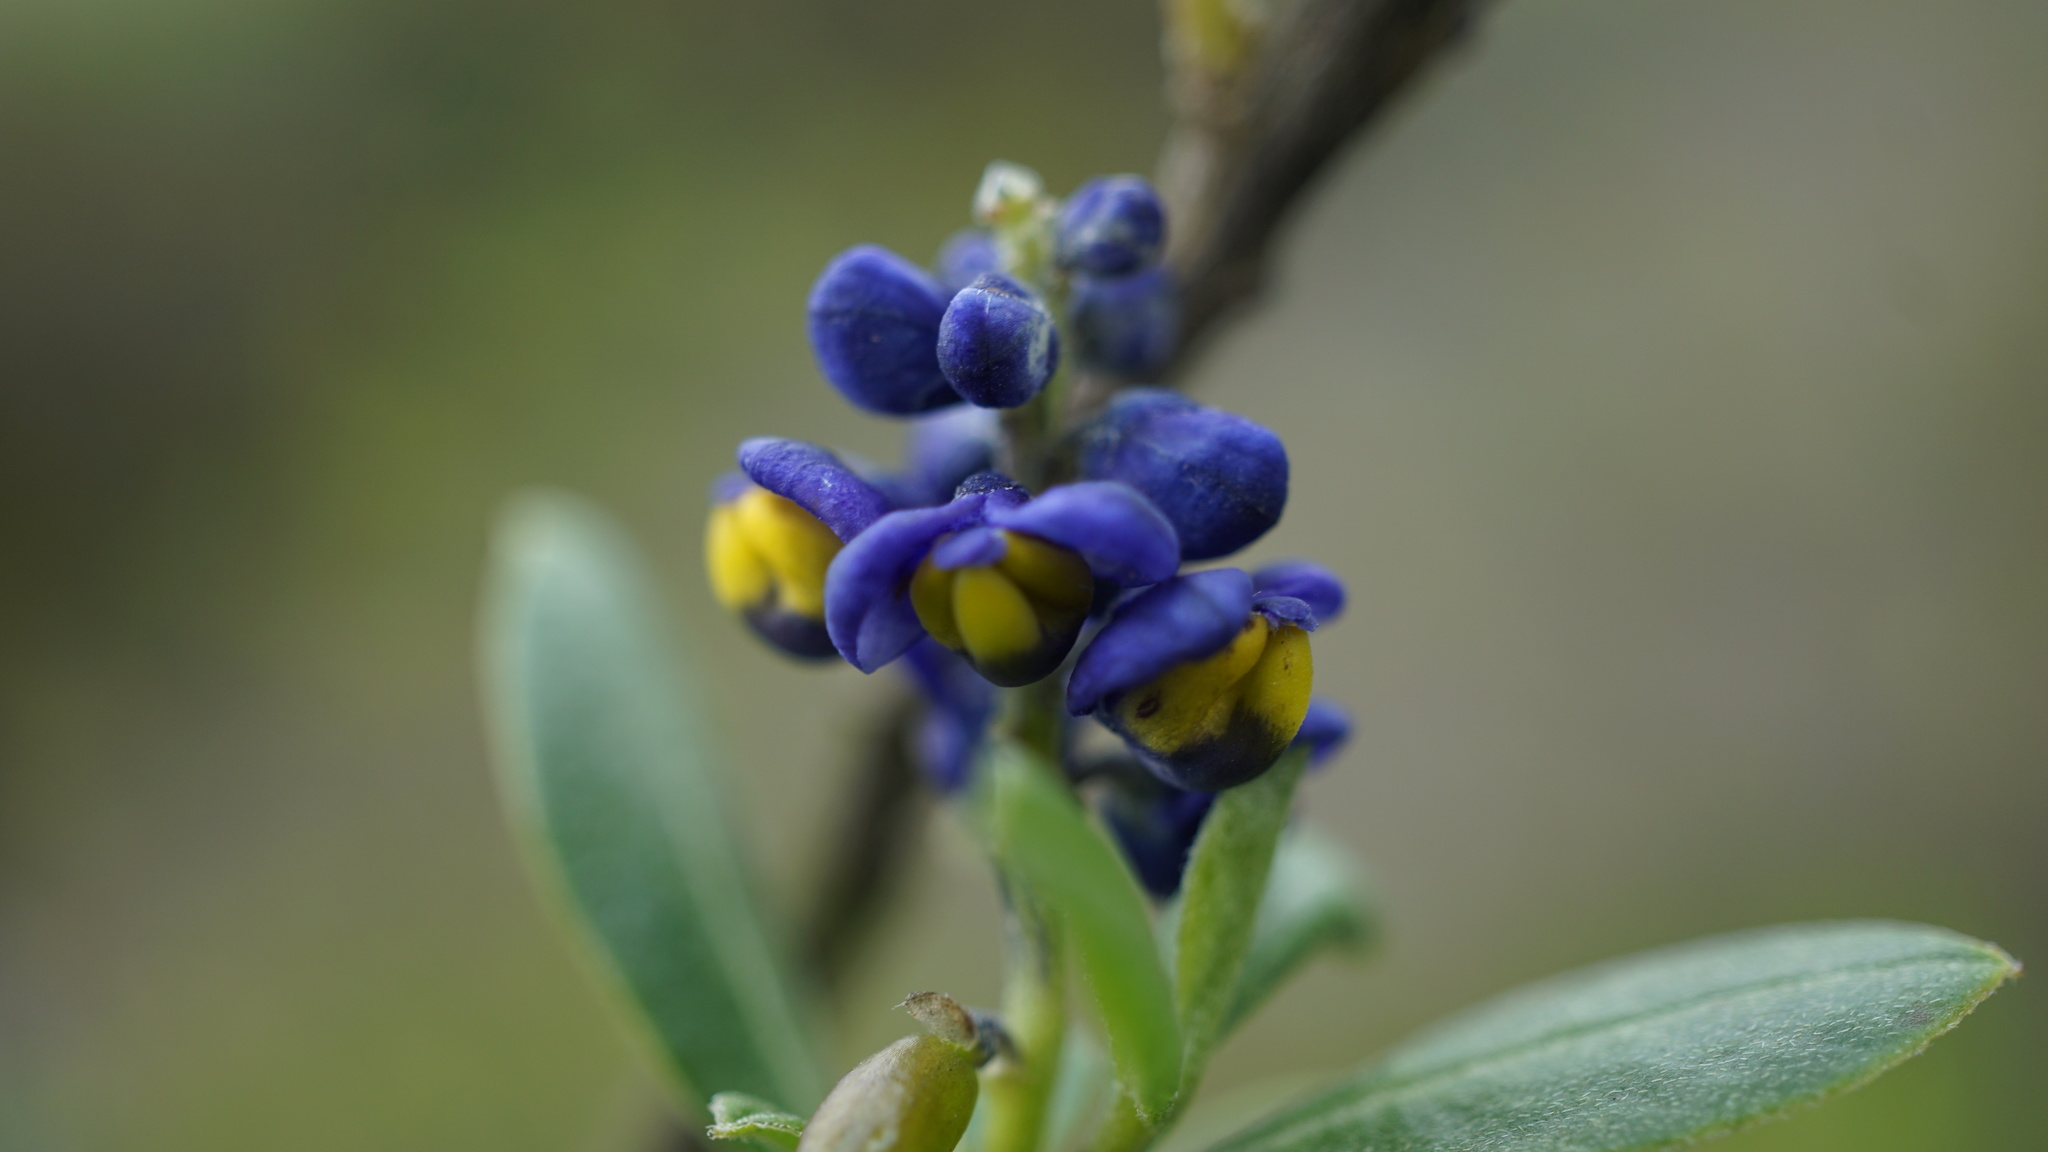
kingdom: Plantae
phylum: Tracheophyta
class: Magnoliopsida
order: Fabales
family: Polygalaceae
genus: Monnina
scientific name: Monnina salicifolia
